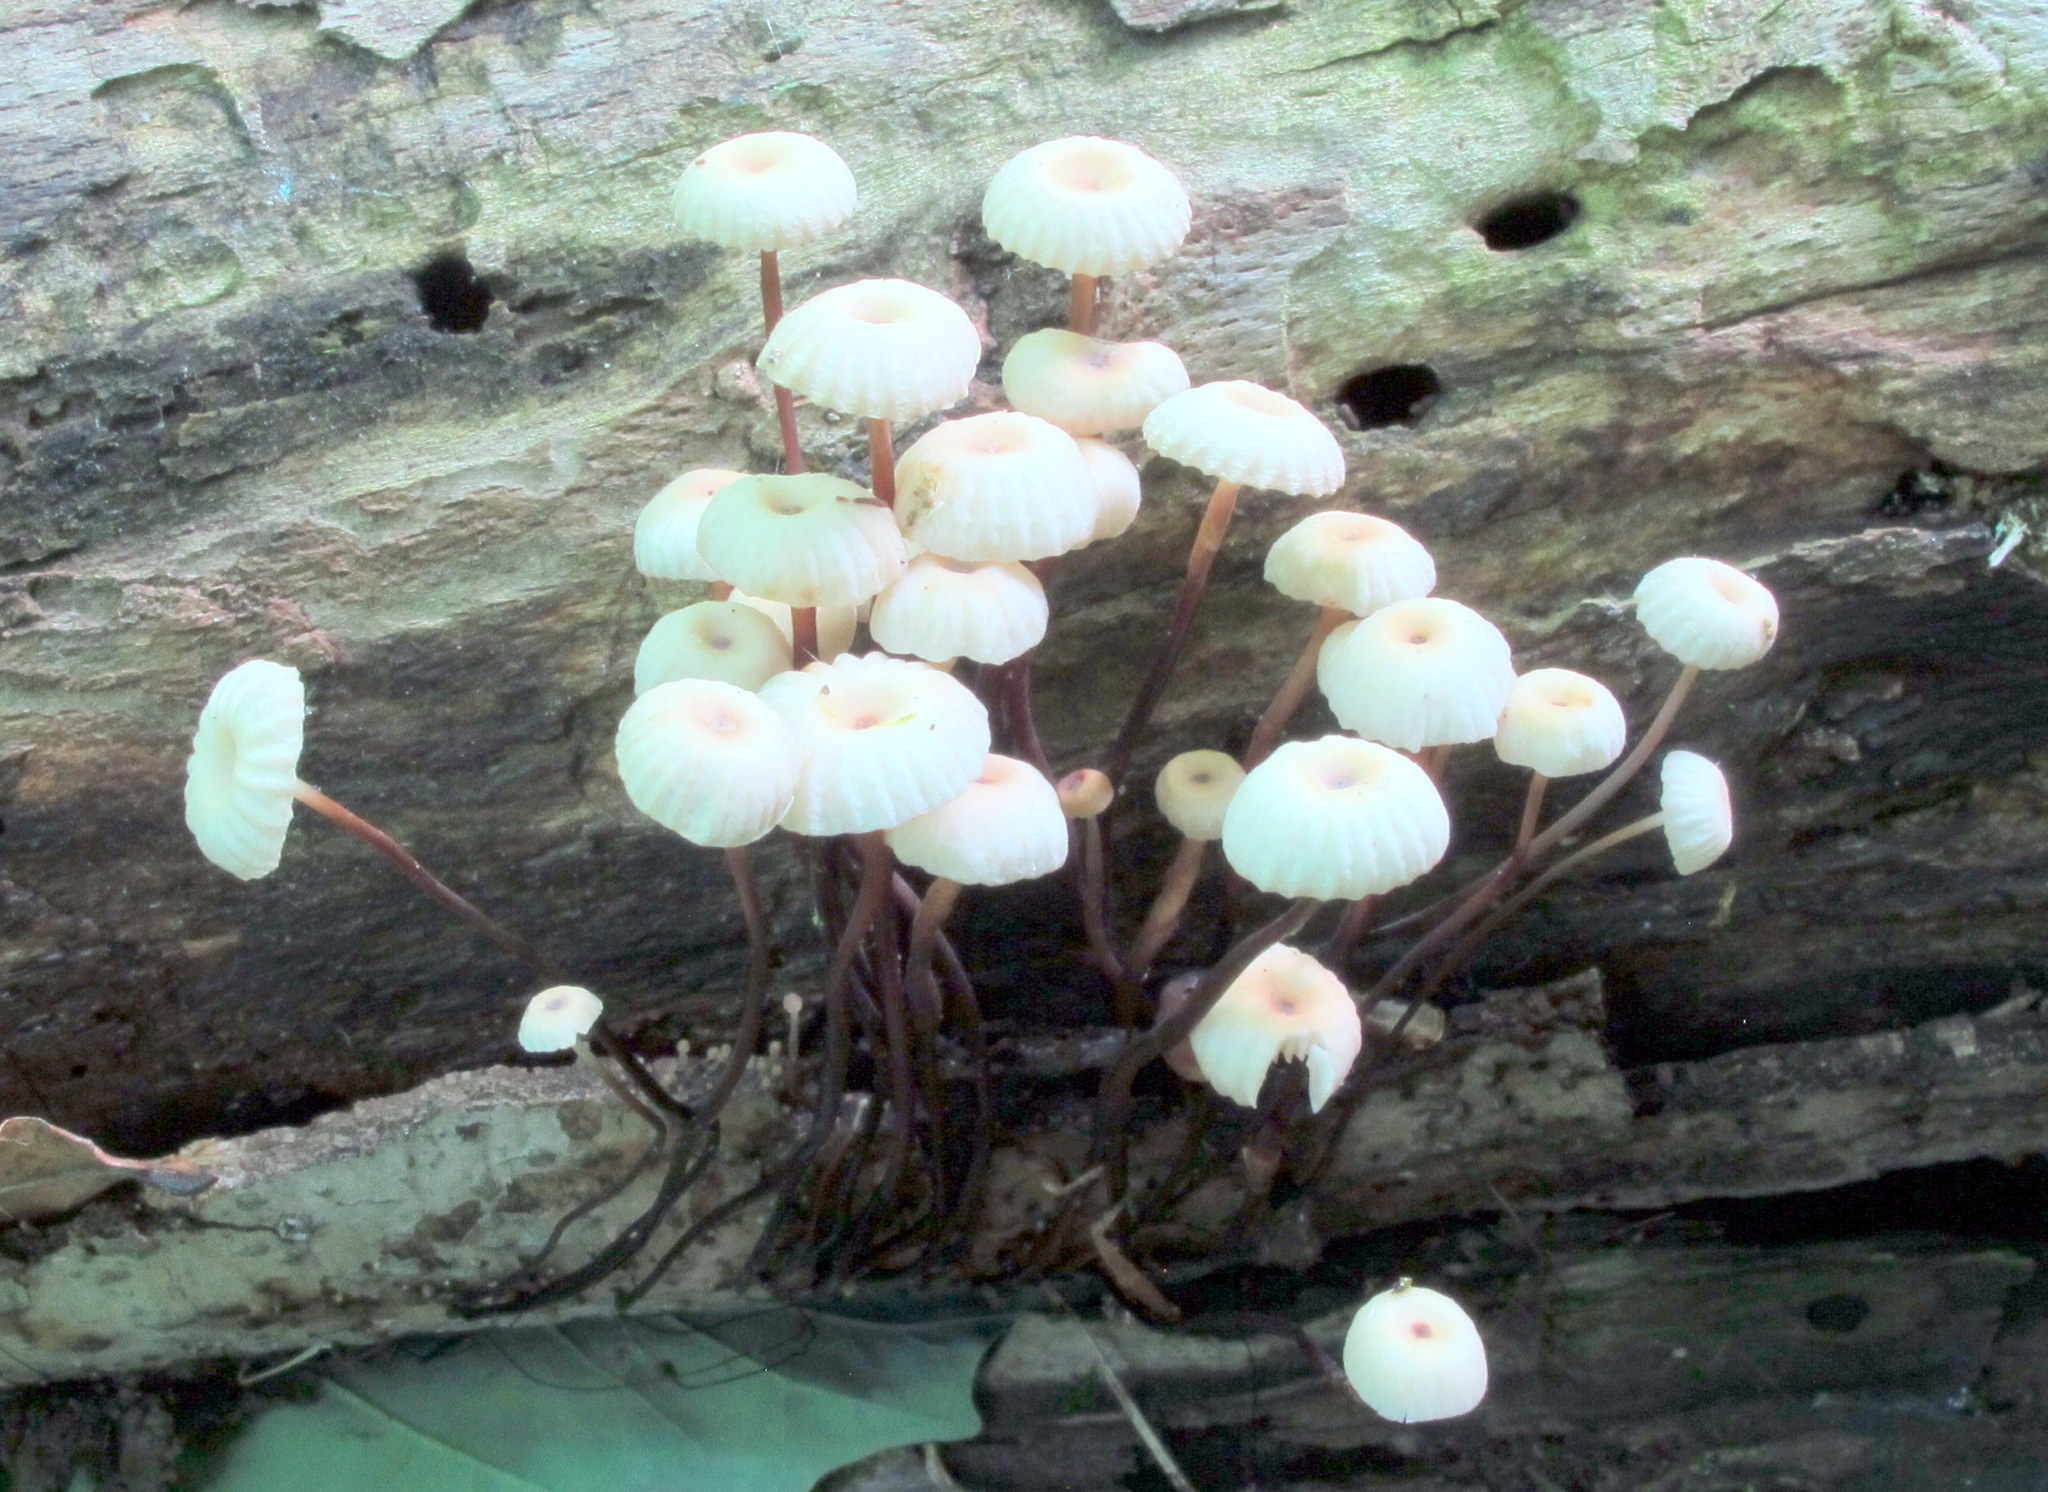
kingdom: Fungi
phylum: Basidiomycota
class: Agaricomycetes
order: Agaricales
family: Marasmiaceae
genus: Marasmius
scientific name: Marasmius rotula
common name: Collared parachute
